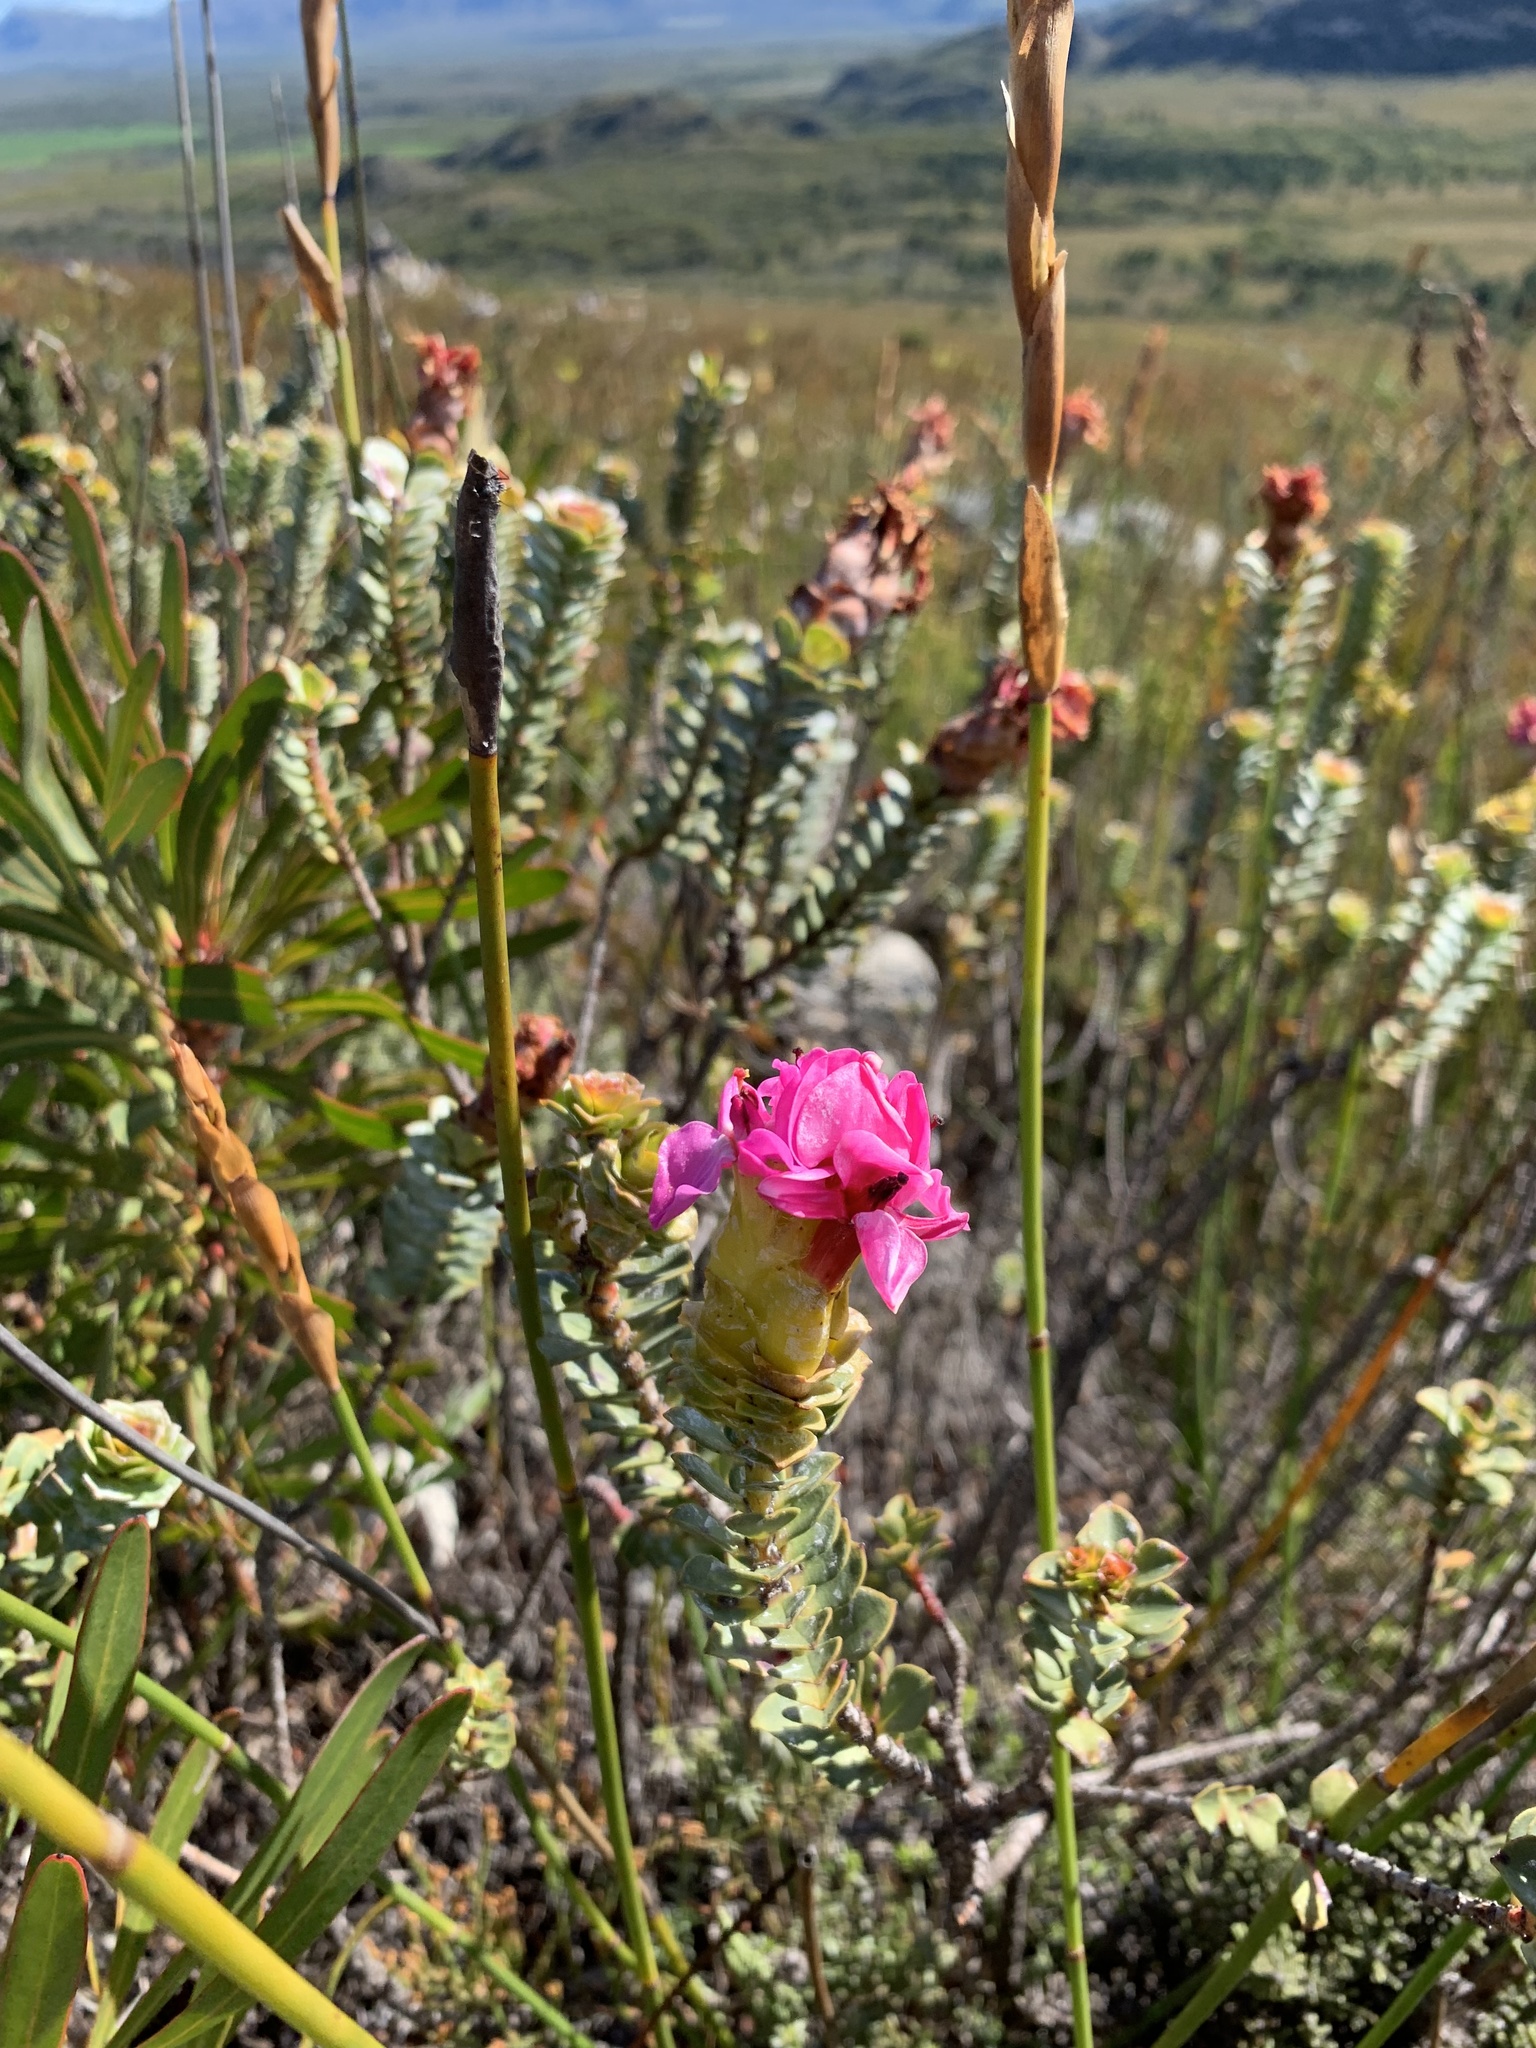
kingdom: Plantae
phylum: Tracheophyta
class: Magnoliopsida
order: Myrtales
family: Penaeaceae
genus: Saltera
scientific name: Saltera sarcocolla
